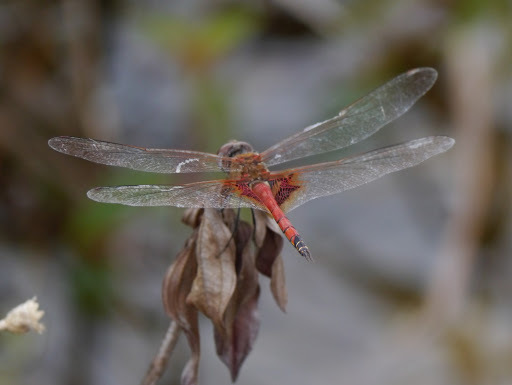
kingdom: Animalia
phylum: Arthropoda
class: Insecta
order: Odonata
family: Libellulidae
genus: Tramea
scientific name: Tramea basilaris
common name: Keyhole glider
